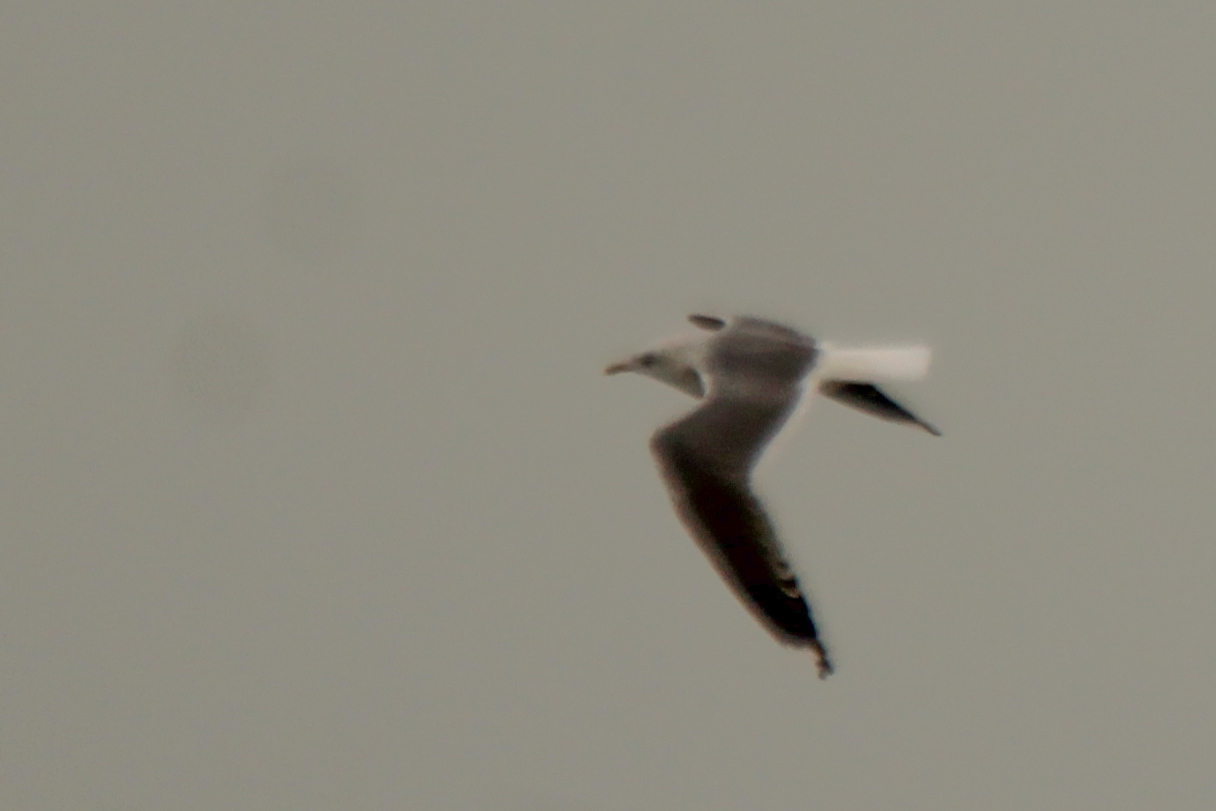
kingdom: Animalia
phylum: Chordata
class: Aves
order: Charadriiformes
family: Laridae
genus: Larus
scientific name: Larus canus
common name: Mew gull
